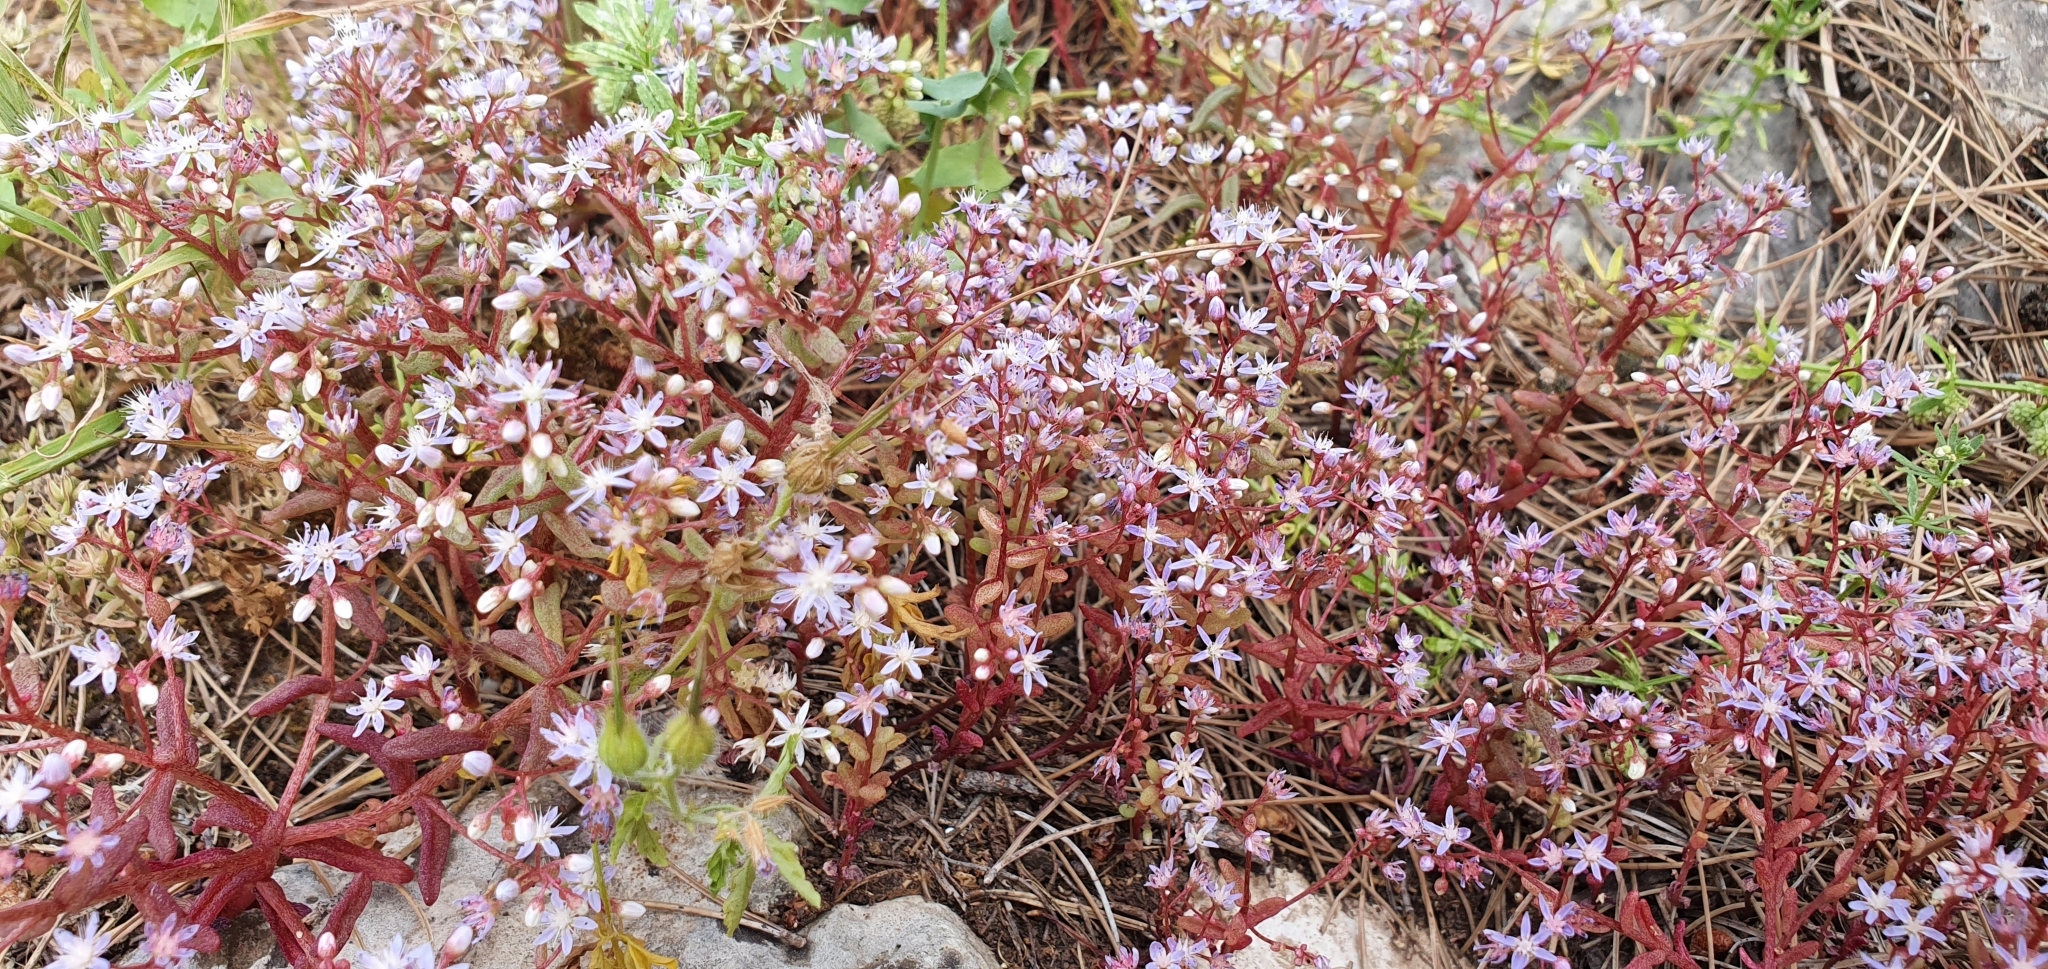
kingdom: Plantae
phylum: Tracheophyta
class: Magnoliopsida
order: Saxifragales
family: Crassulaceae
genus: Sedum
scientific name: Sedum caeruleum
